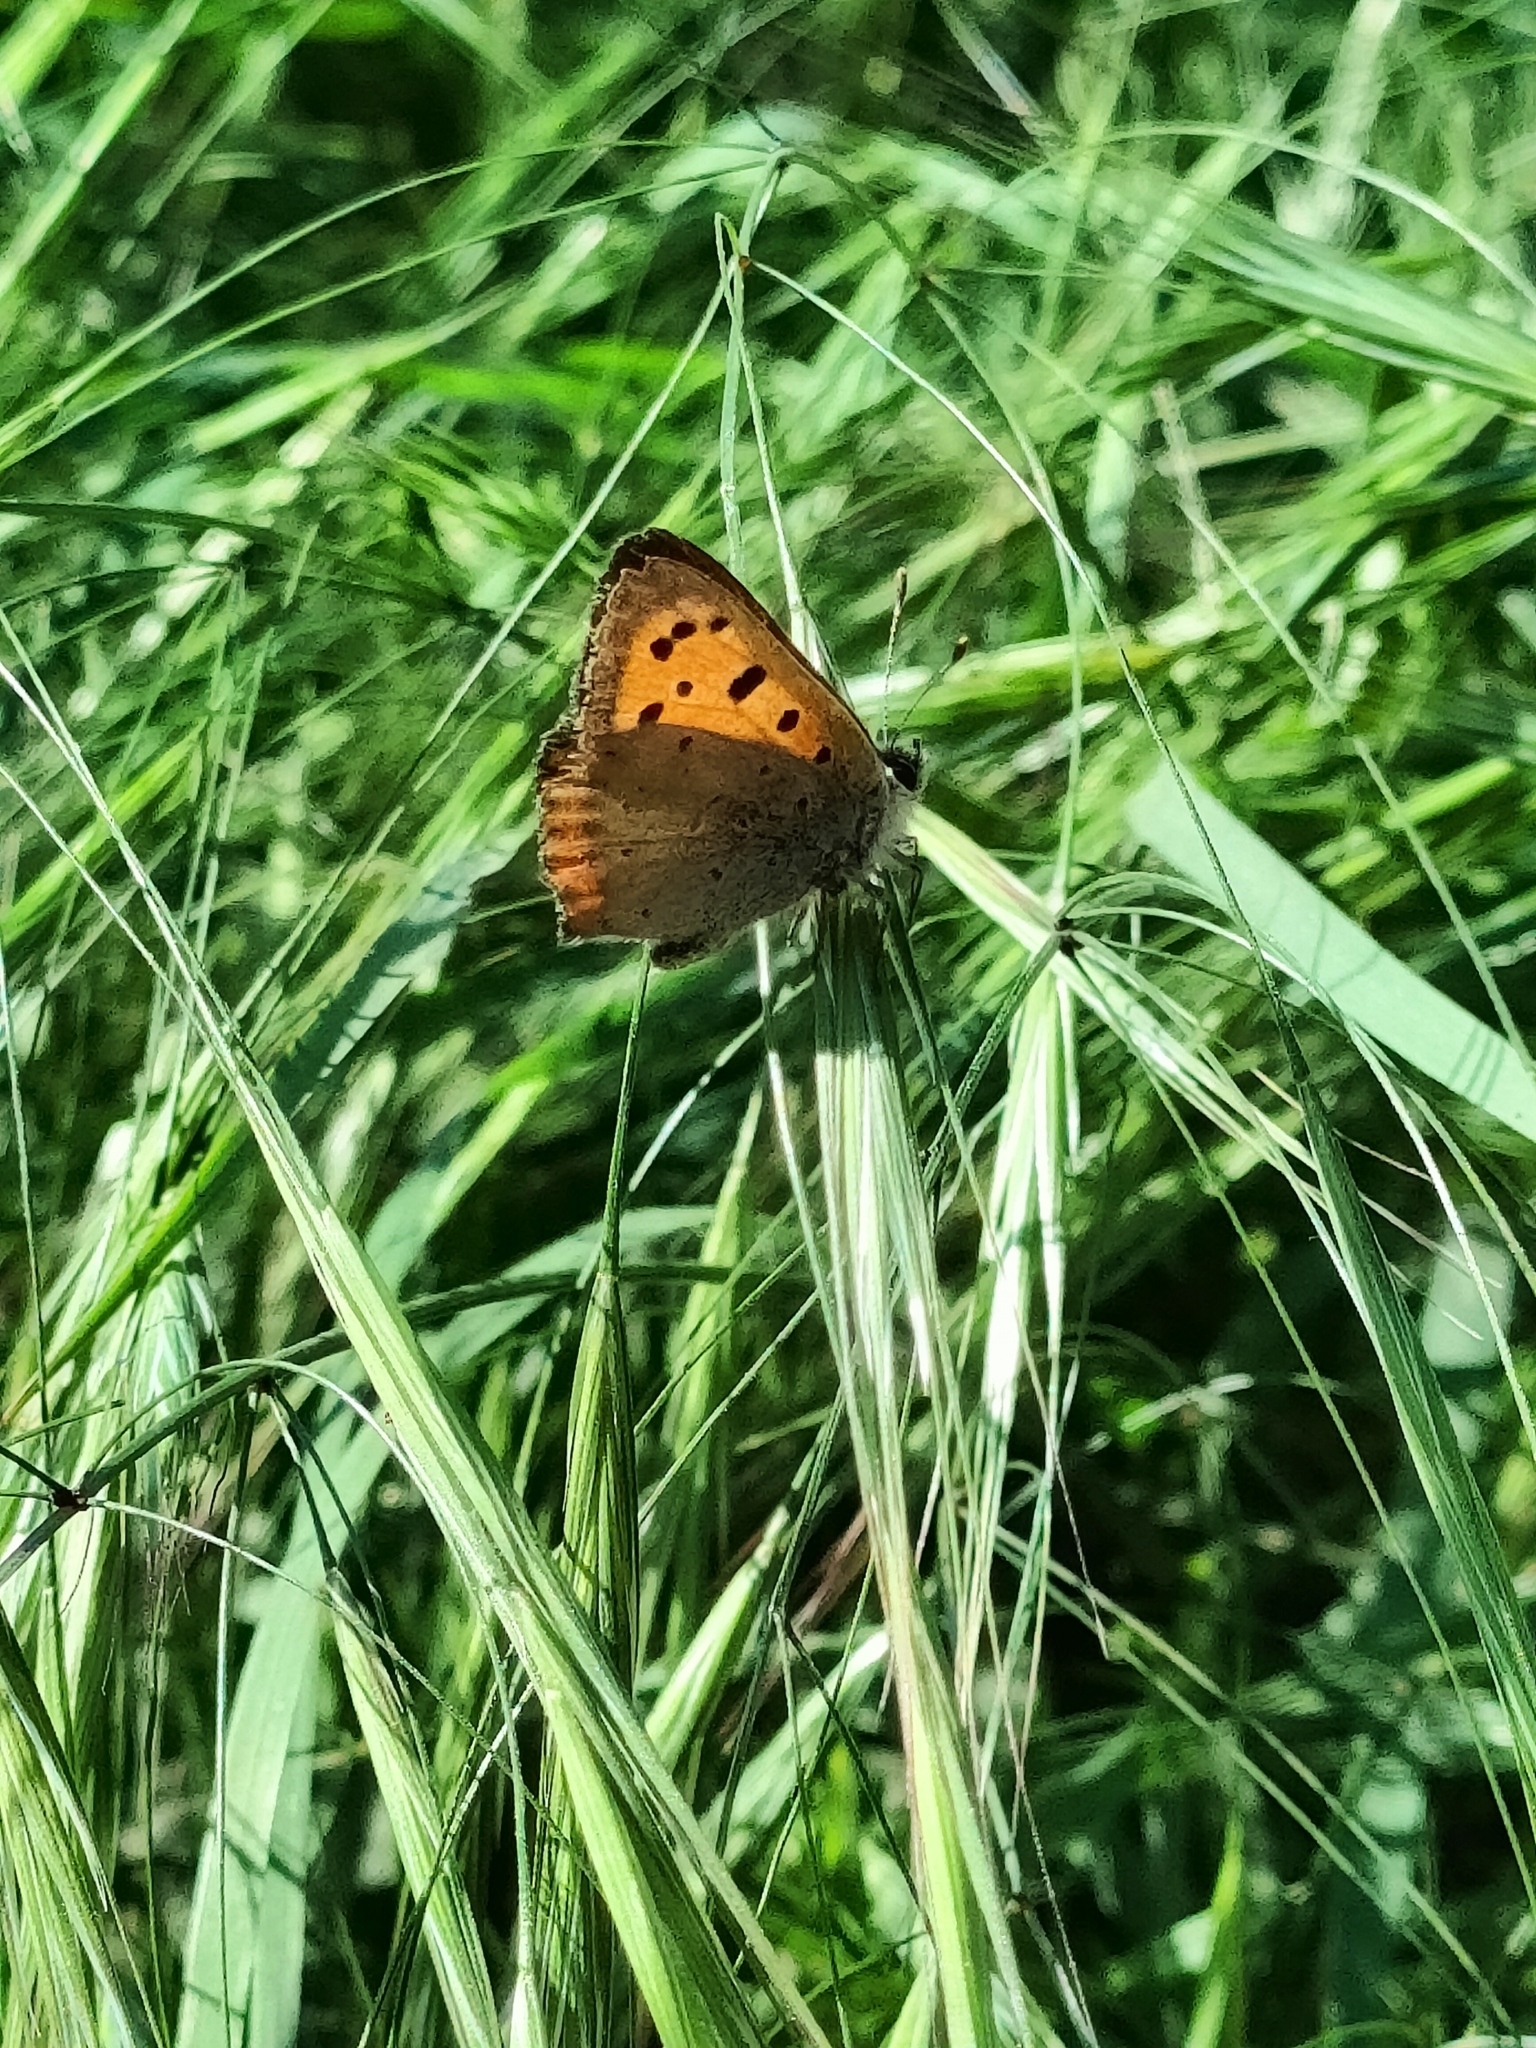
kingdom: Animalia
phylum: Arthropoda
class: Insecta
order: Lepidoptera
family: Lycaenidae
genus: Lycaena
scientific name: Lycaena phlaeas
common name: Small copper
